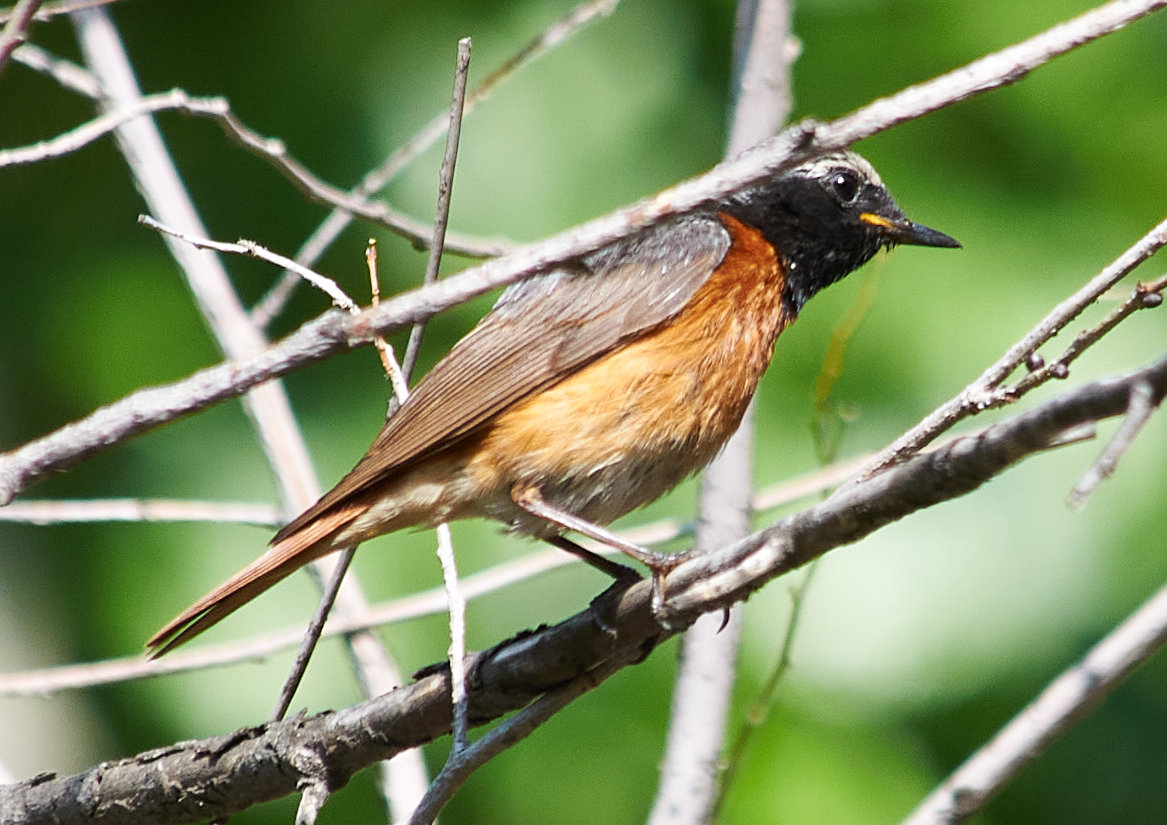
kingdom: Animalia
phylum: Chordata
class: Aves
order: Passeriformes
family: Muscicapidae
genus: Phoenicurus
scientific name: Phoenicurus phoenicurus
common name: Common redstart
